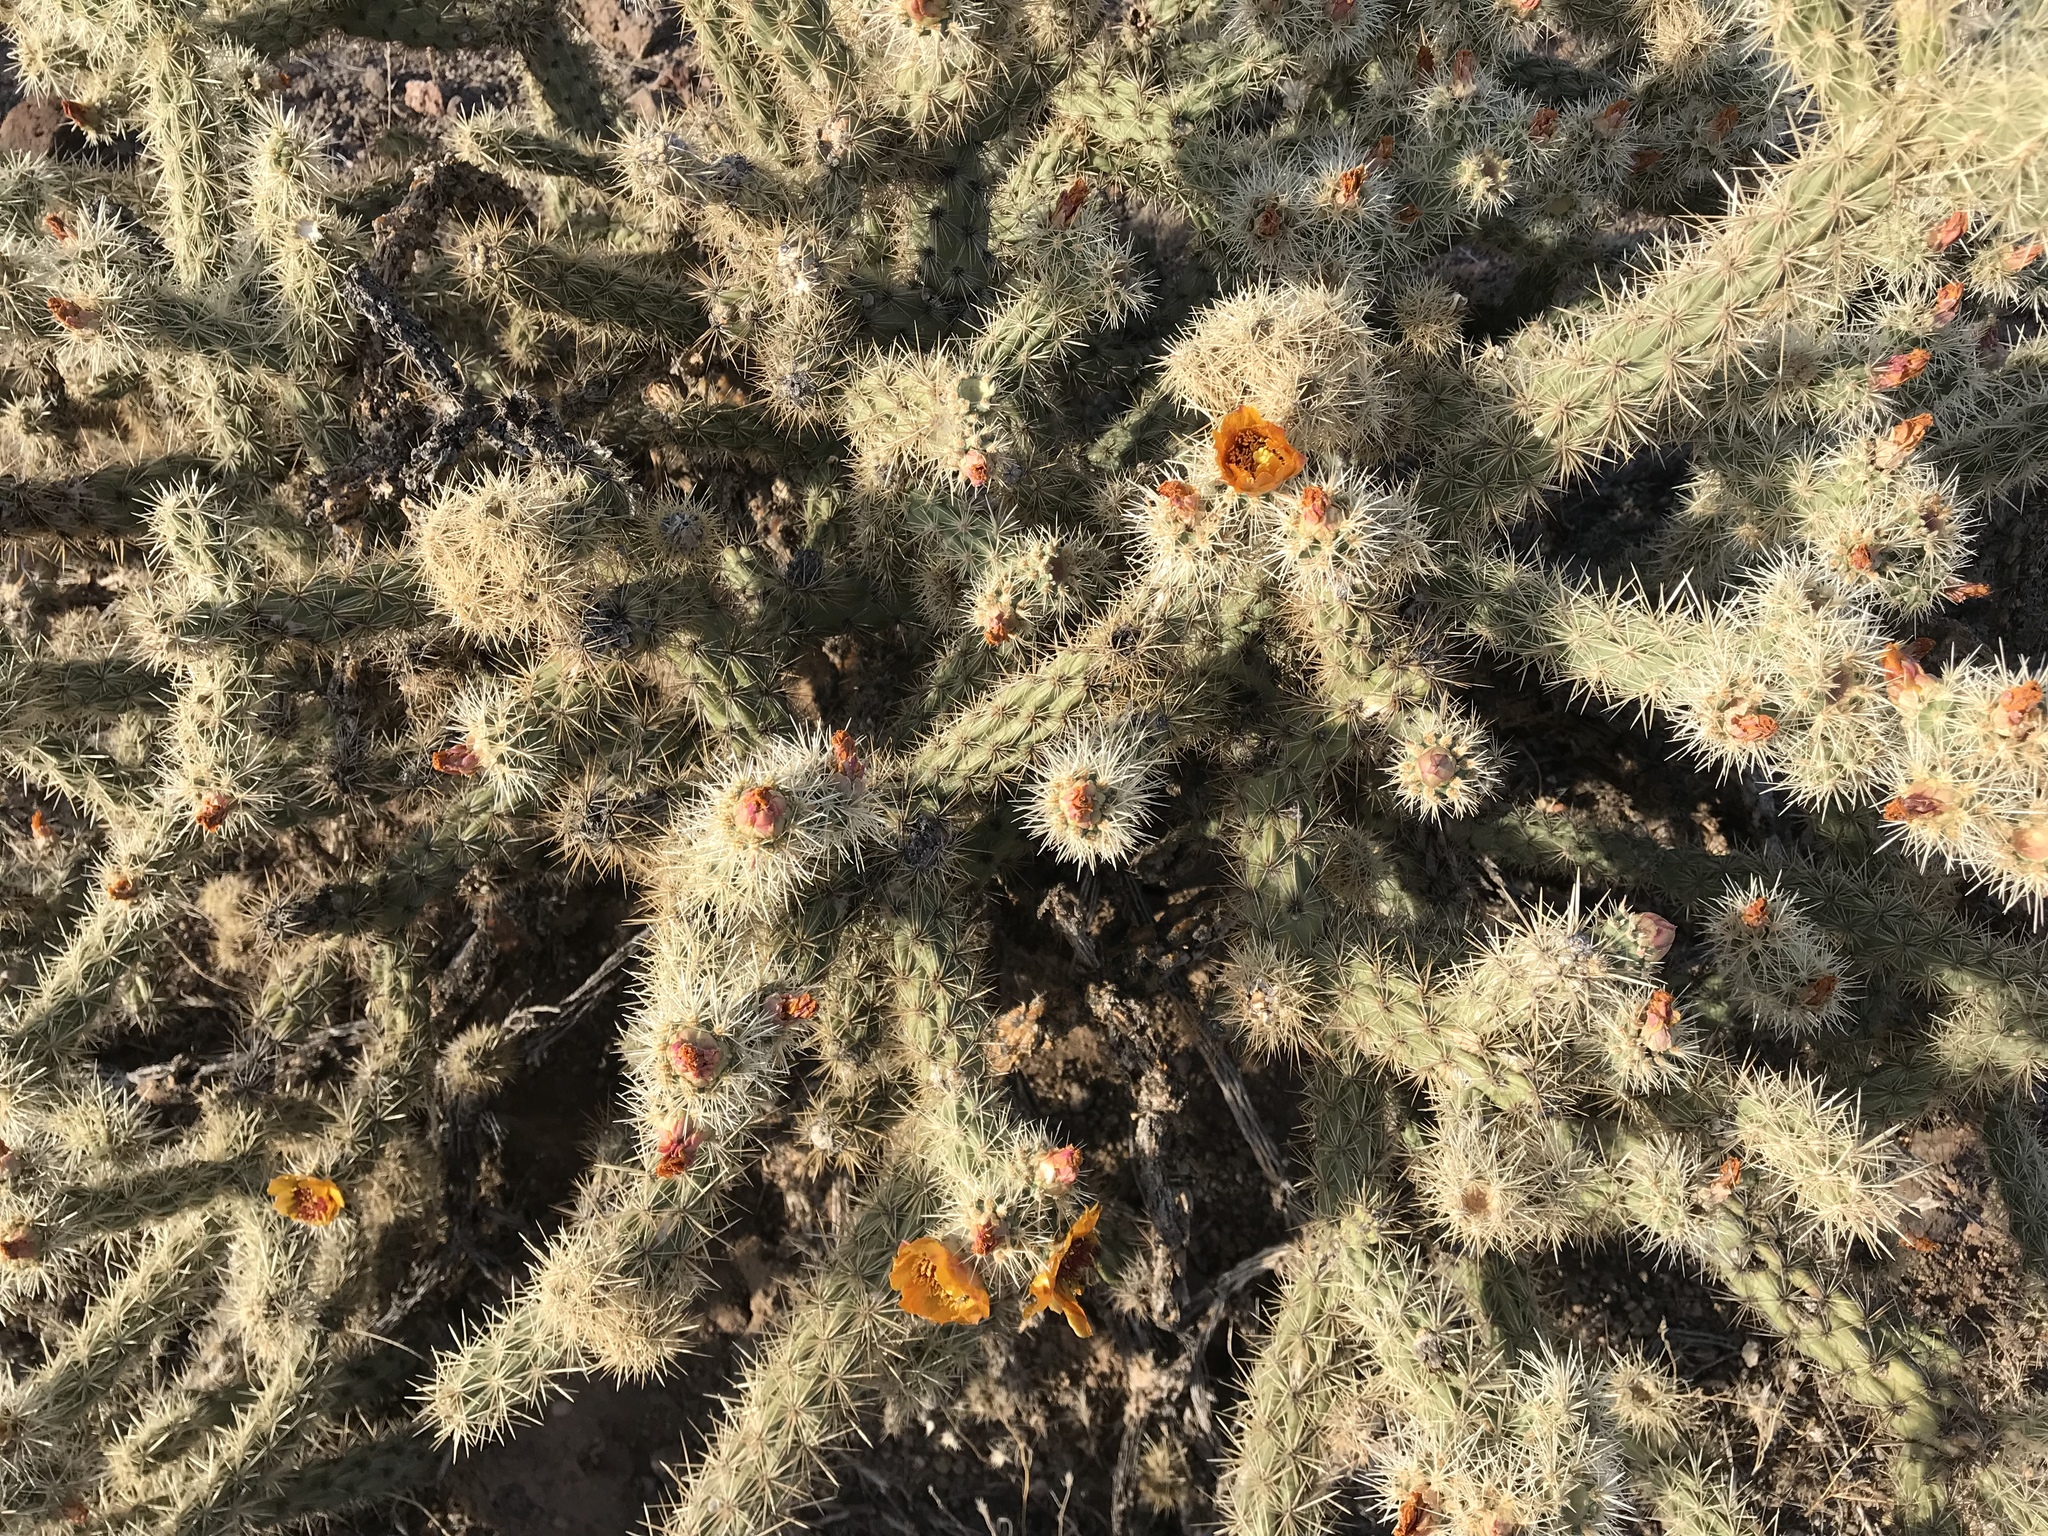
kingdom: Plantae
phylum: Tracheophyta
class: Magnoliopsida
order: Caryophyllales
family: Cactaceae
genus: Cylindropuntia
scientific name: Cylindropuntia acanthocarpa
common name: Buckhorn cholla
